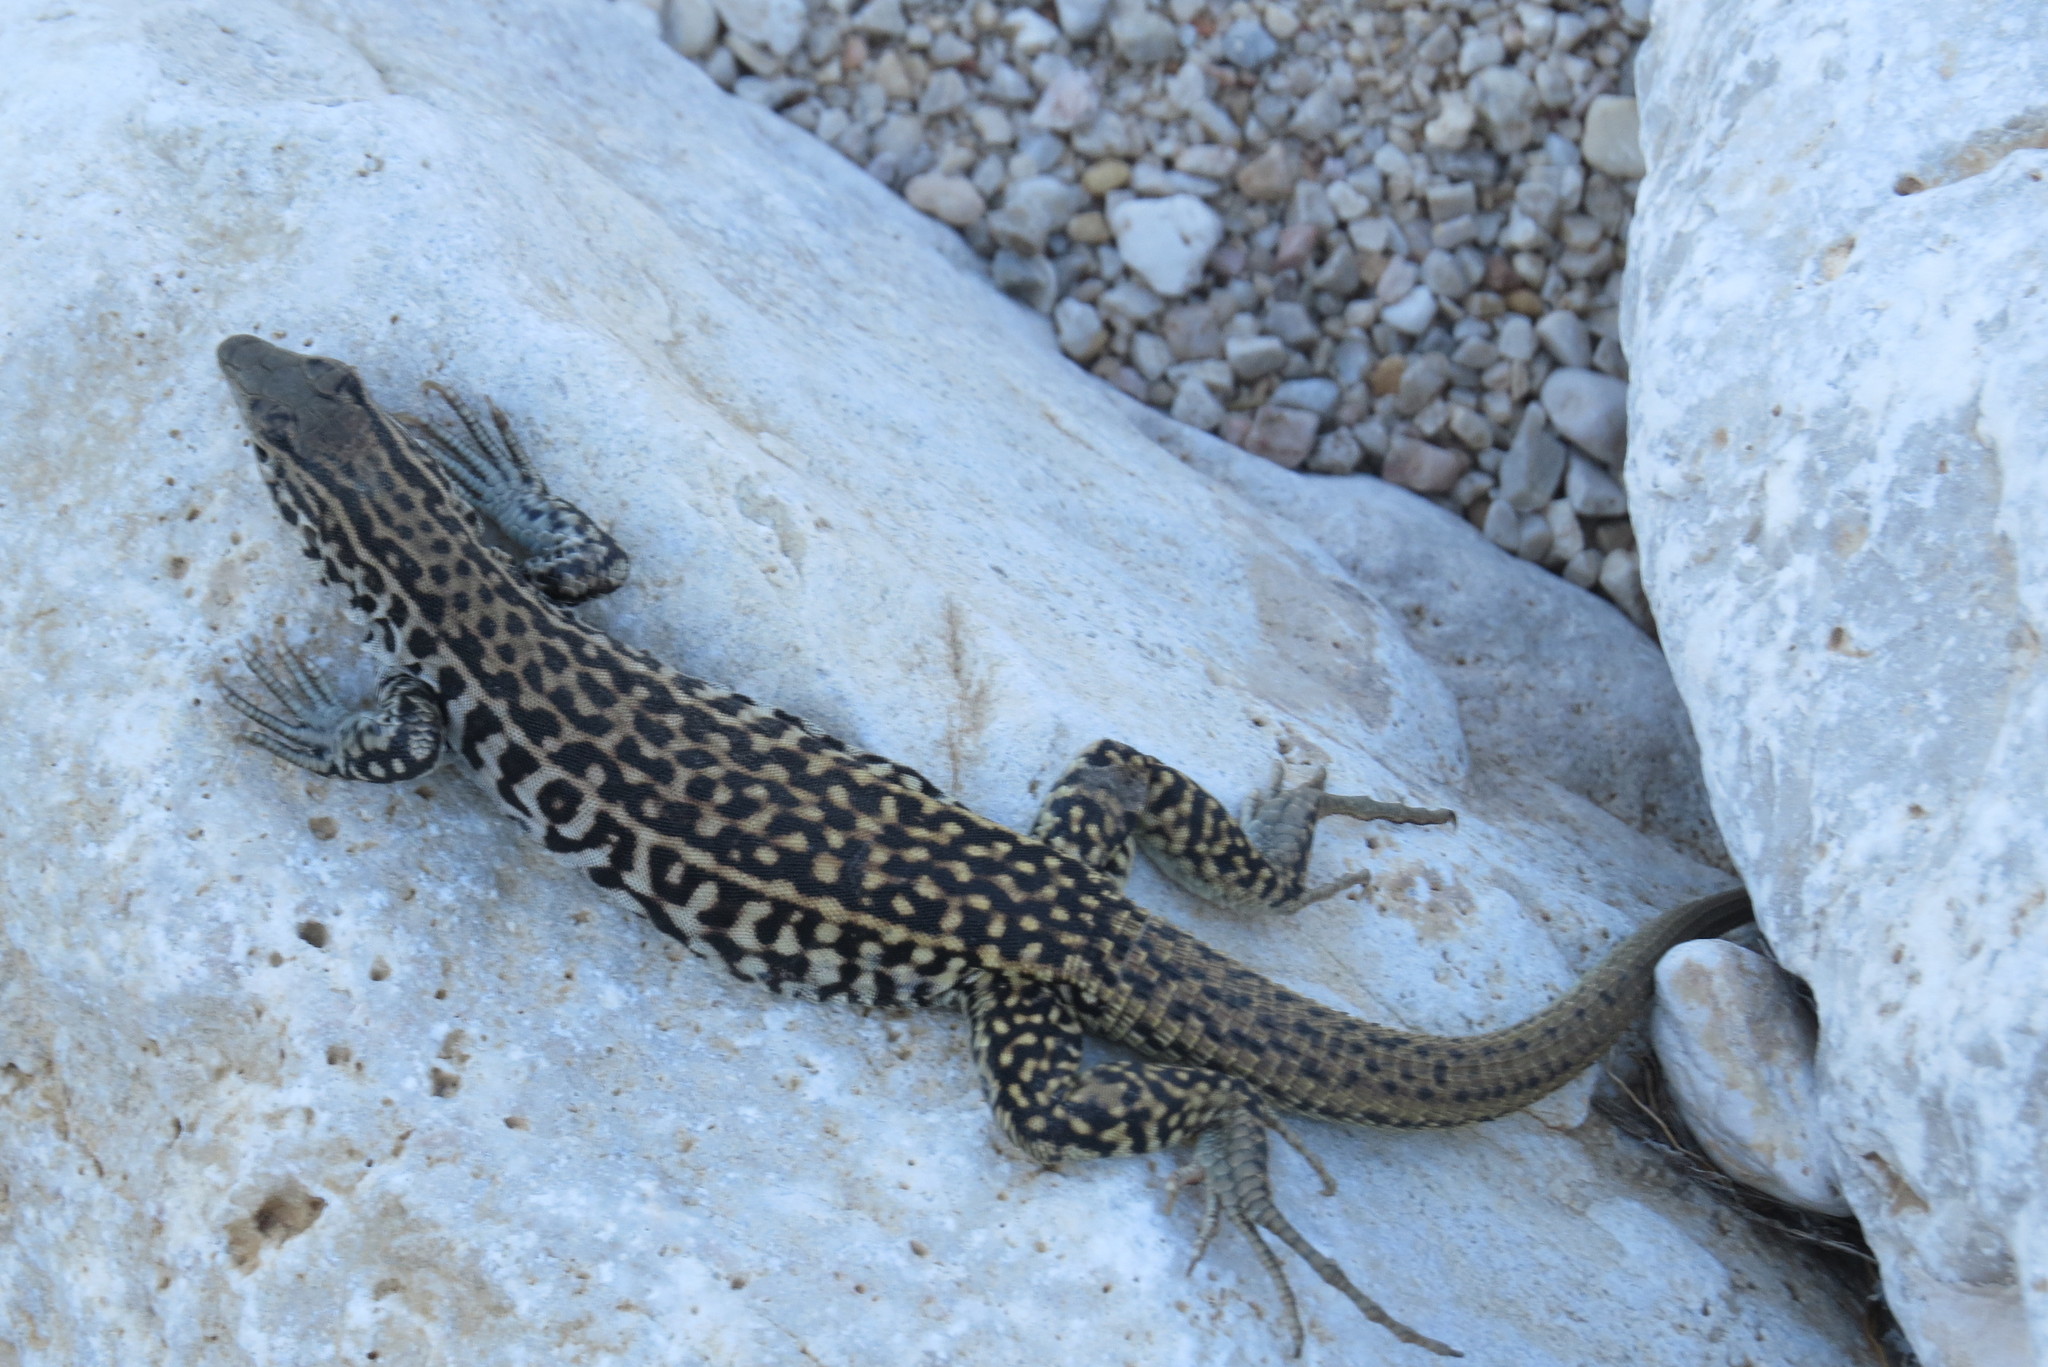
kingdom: Animalia
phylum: Chordata
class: Squamata
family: Teiidae
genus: Aspidoscelis
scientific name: Aspidoscelis tesselatus
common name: Common checkered whiptail [tesselata]
